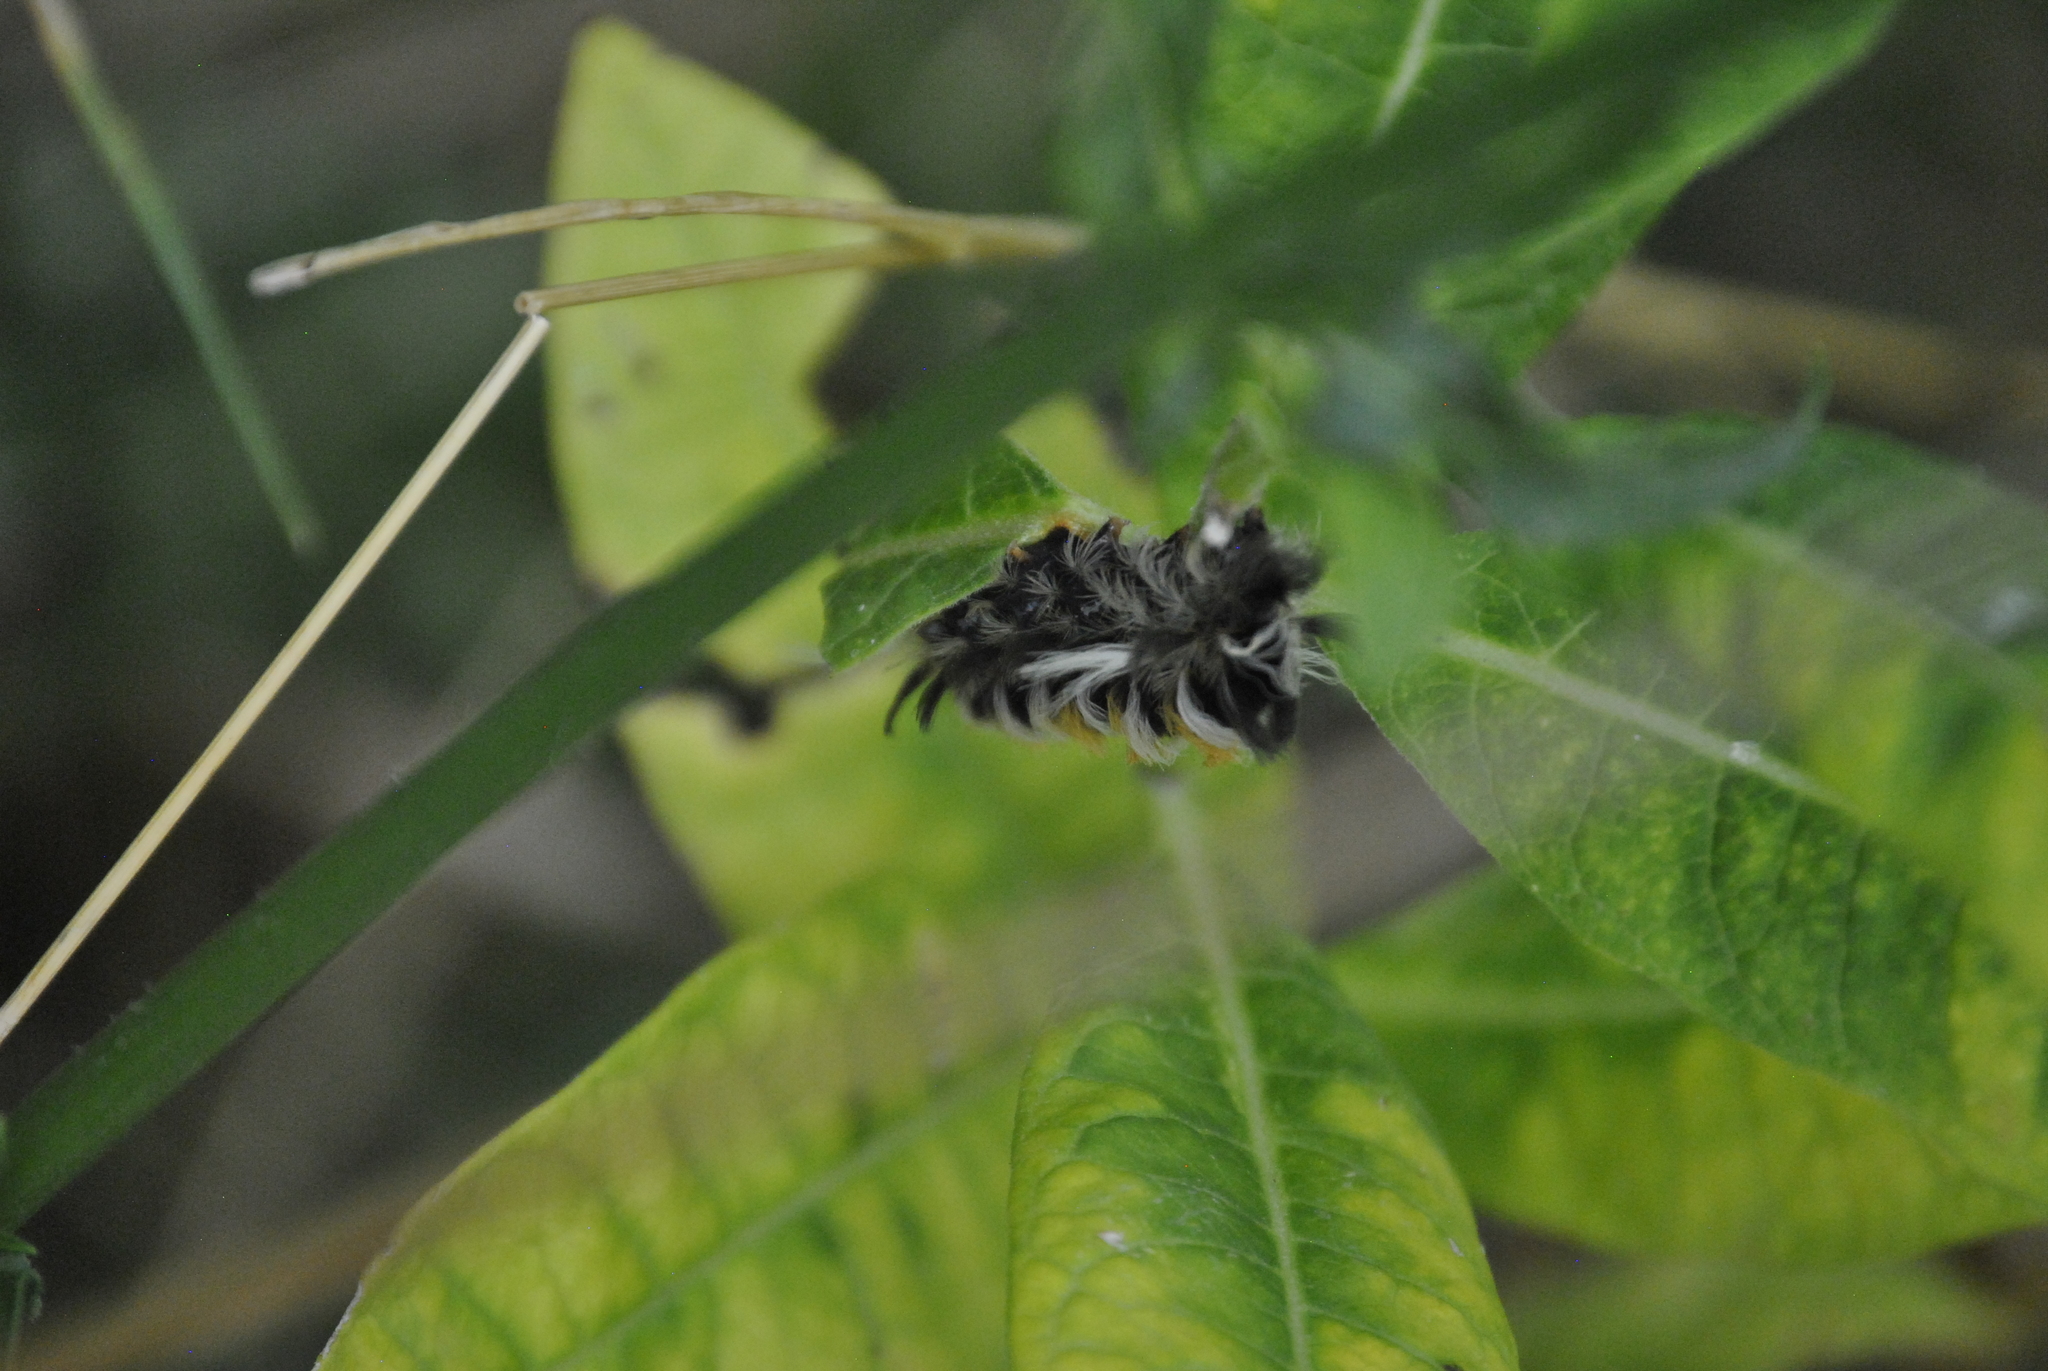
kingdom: Animalia
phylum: Arthropoda
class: Insecta
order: Lepidoptera
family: Erebidae
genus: Euchaetes
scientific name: Euchaetes egle
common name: Milkweed tussock moth
